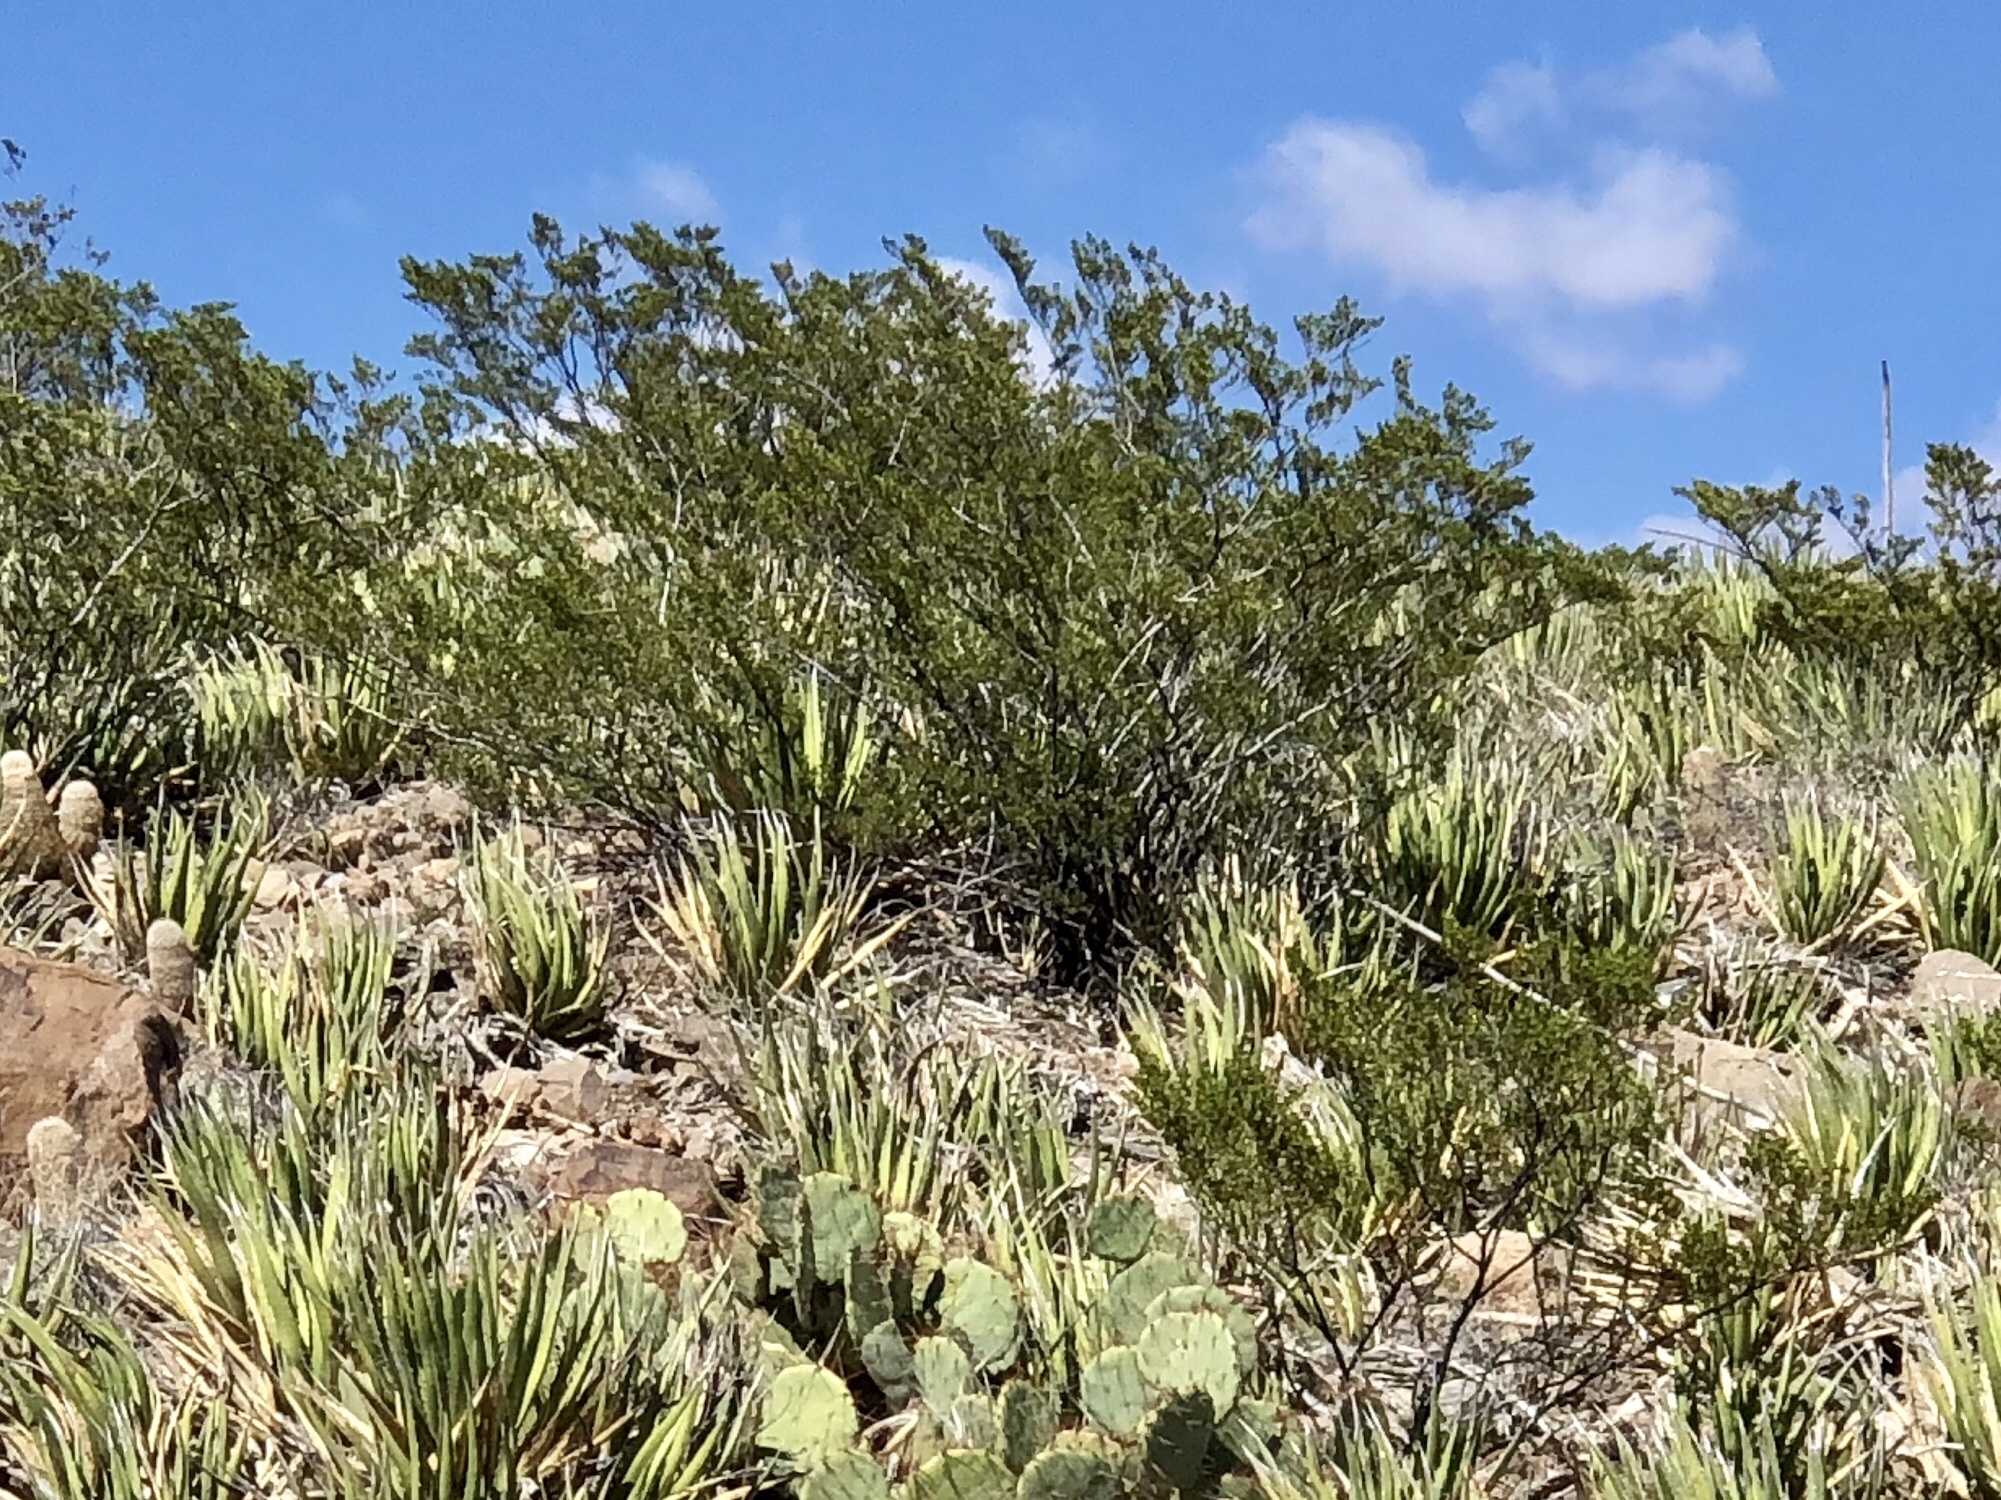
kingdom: Plantae
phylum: Tracheophyta
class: Magnoliopsida
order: Zygophyllales
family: Zygophyllaceae
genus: Larrea
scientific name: Larrea tridentata
